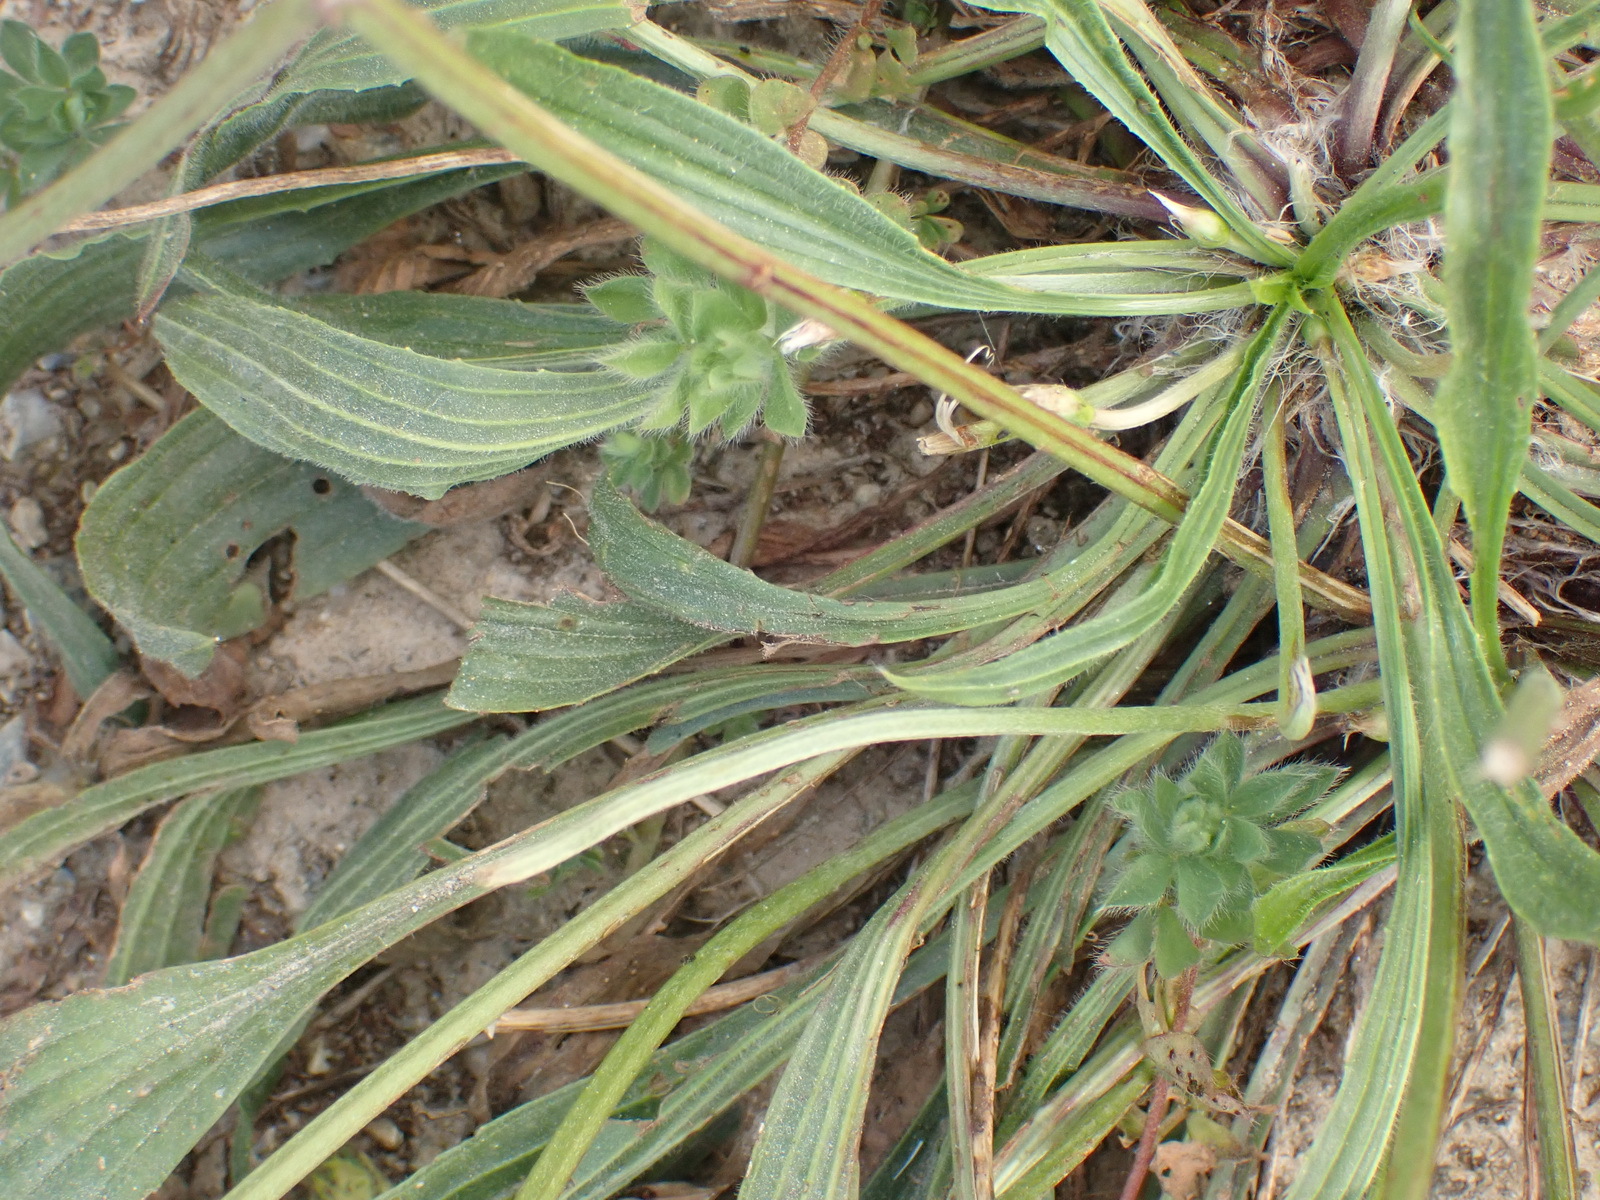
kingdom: Plantae
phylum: Tracheophyta
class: Magnoliopsida
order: Lamiales
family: Plantaginaceae
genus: Plantago
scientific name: Plantago lanceolata
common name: Ribwort plantain
